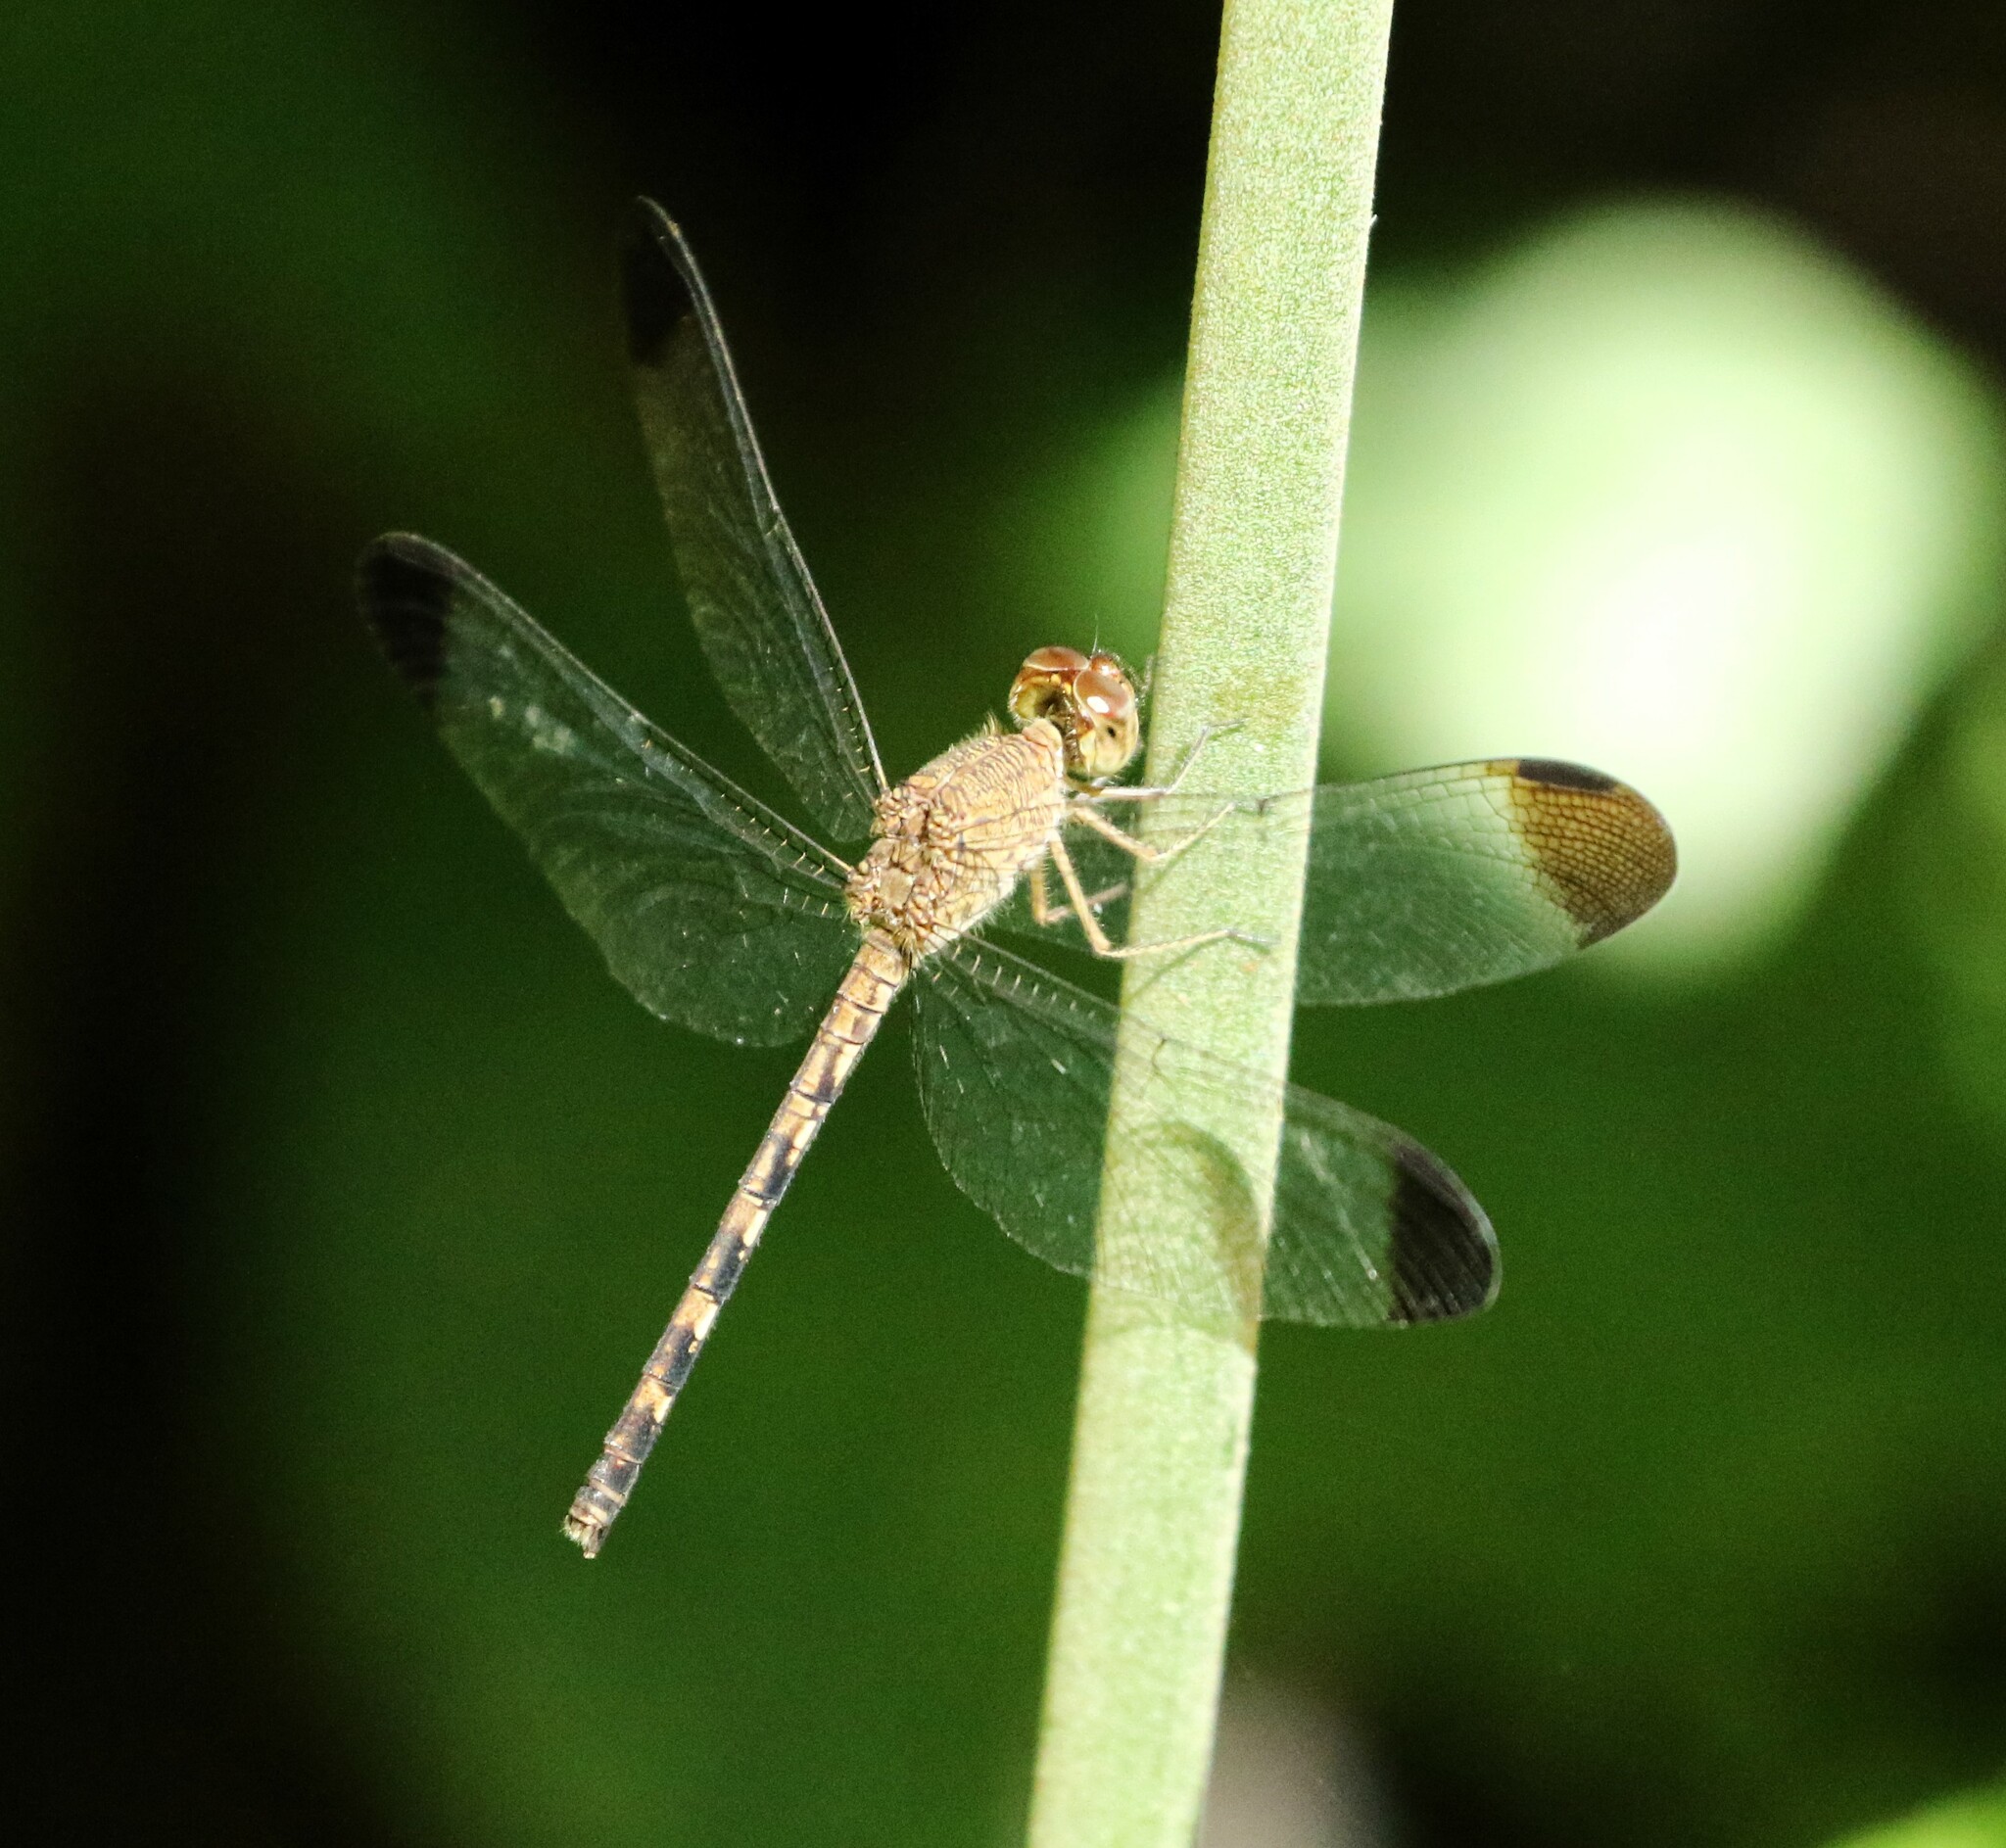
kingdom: Animalia
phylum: Arthropoda
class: Insecta
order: Odonata
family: Libellulidae
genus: Uracis
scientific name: Uracis imbuta
